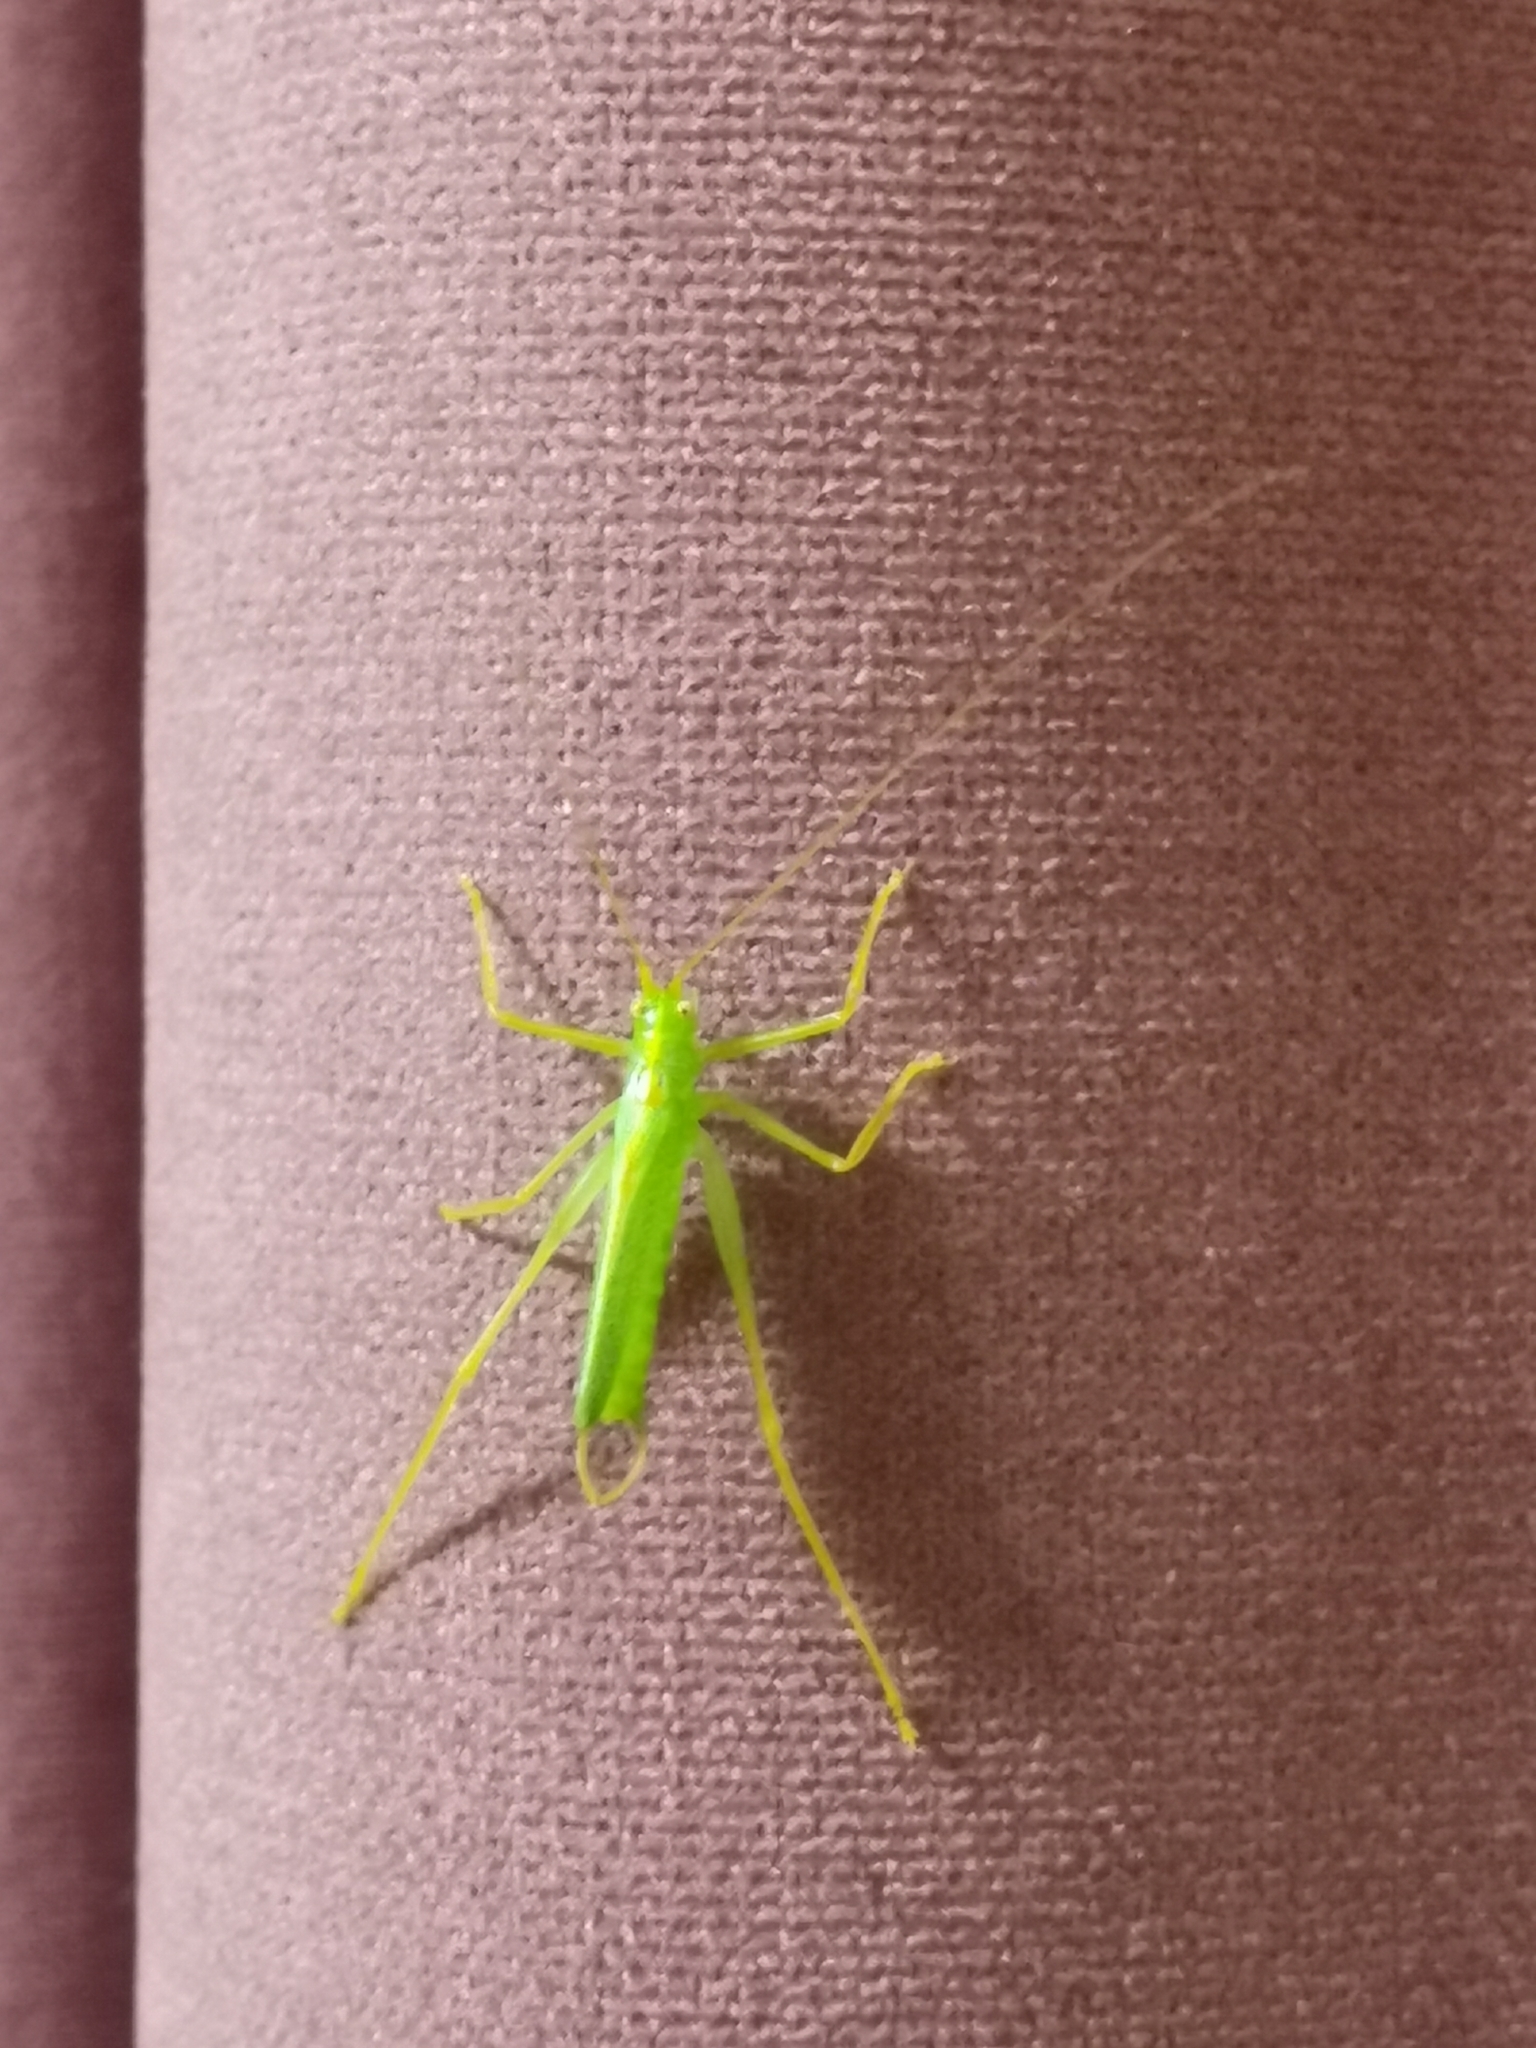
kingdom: Animalia
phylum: Arthropoda
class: Insecta
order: Orthoptera
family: Tettigoniidae
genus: Meconema
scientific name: Meconema thalassinum
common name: Oak bush-cricket
